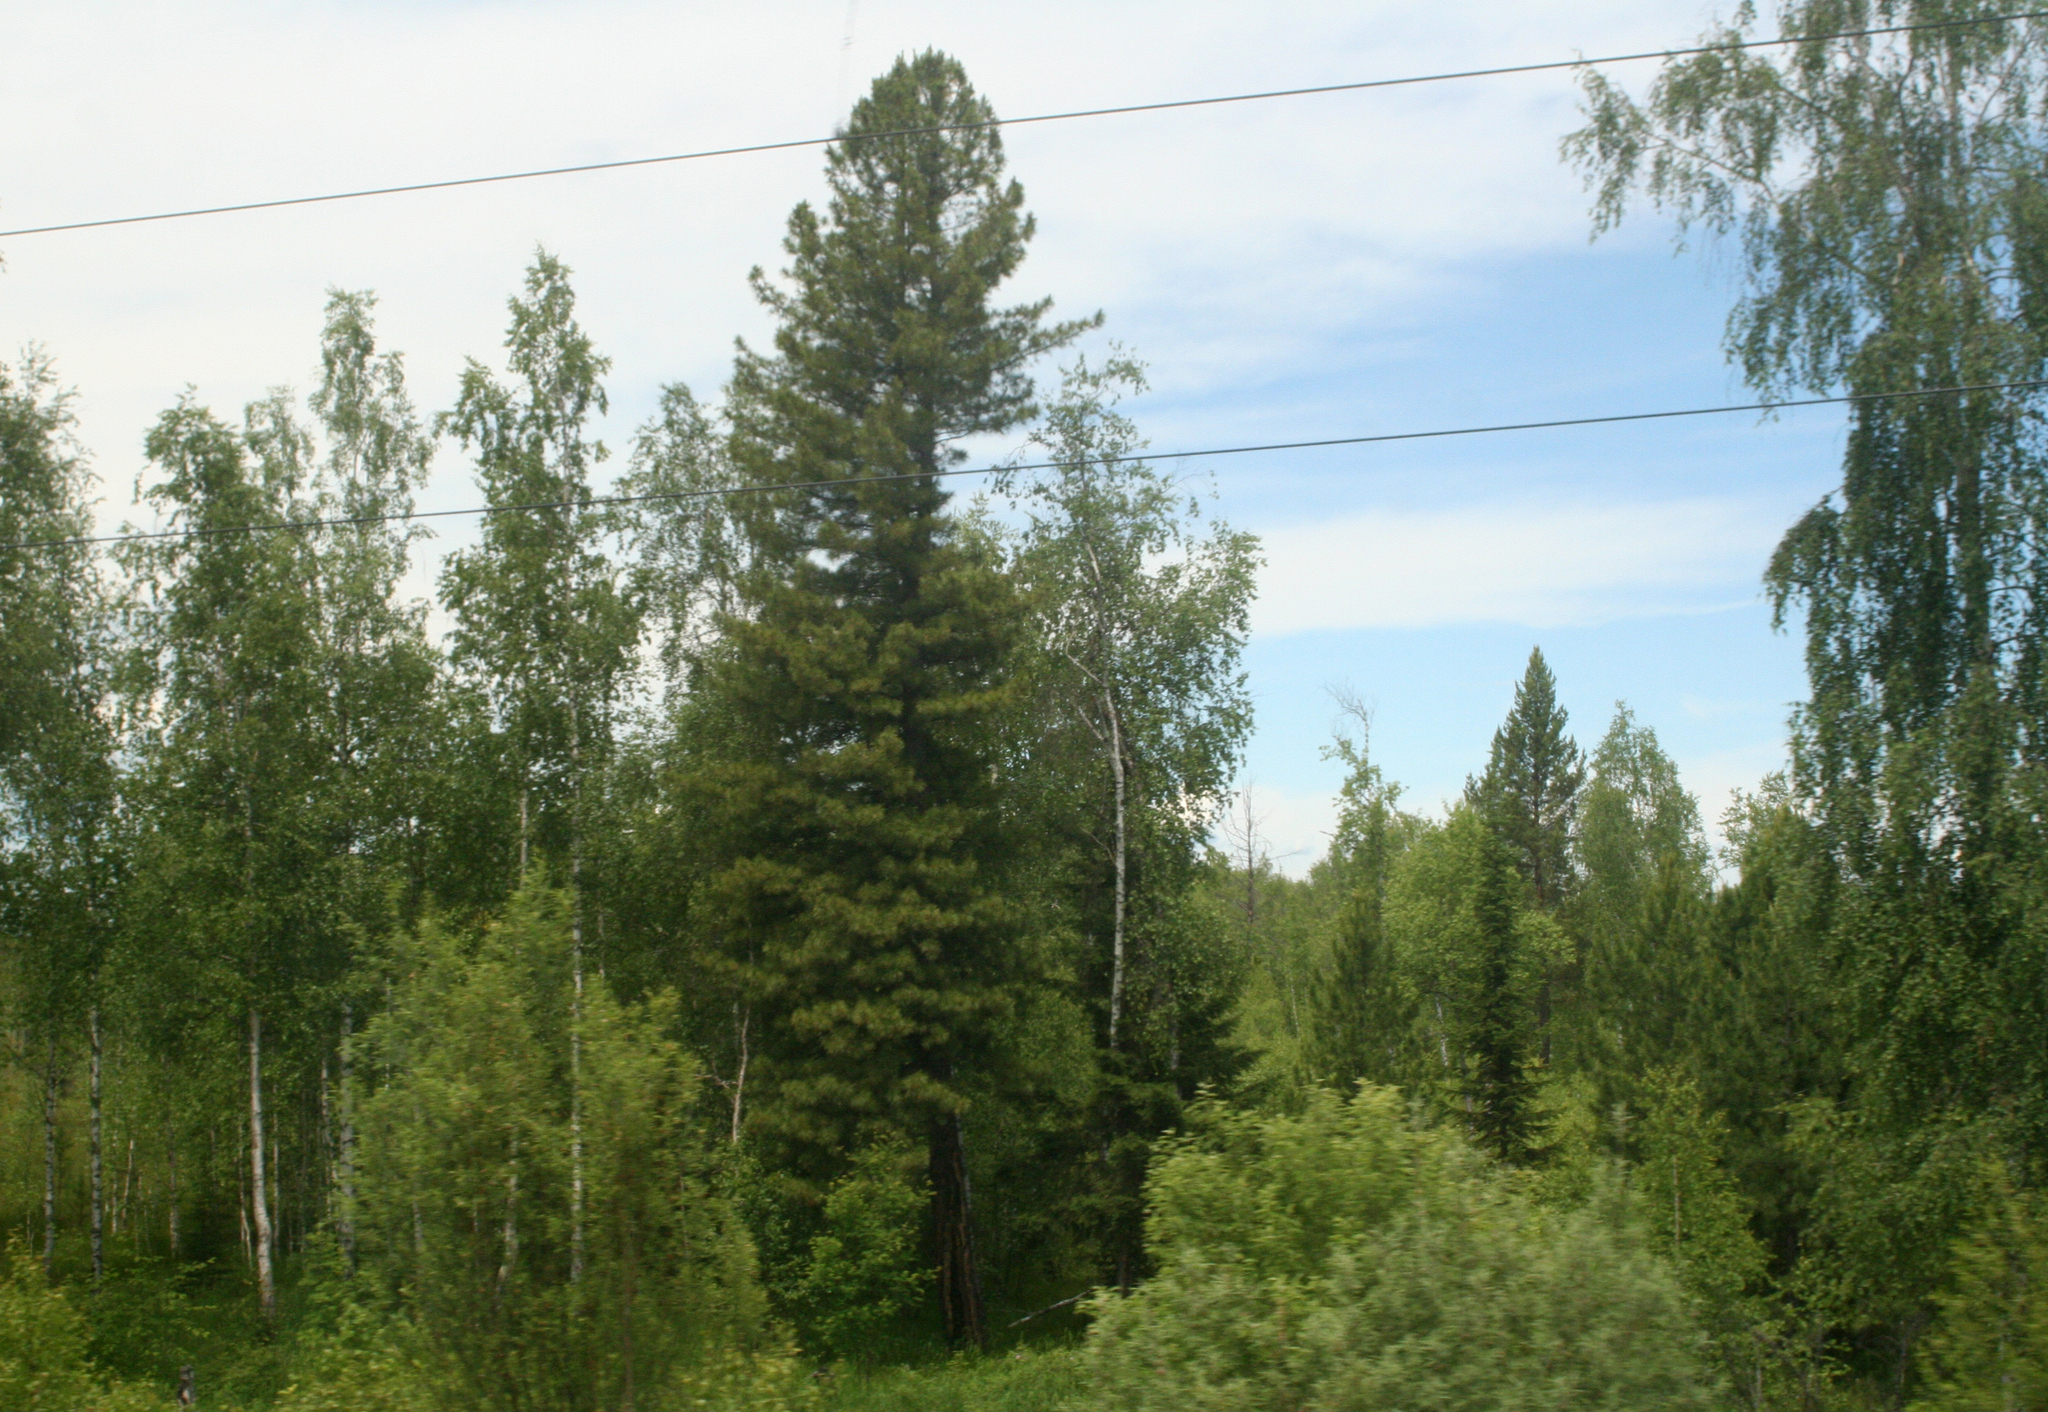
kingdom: Plantae
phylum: Tracheophyta
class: Magnoliopsida
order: Fagales
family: Betulaceae
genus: Betula
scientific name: Betula pendula
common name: Silver birch
